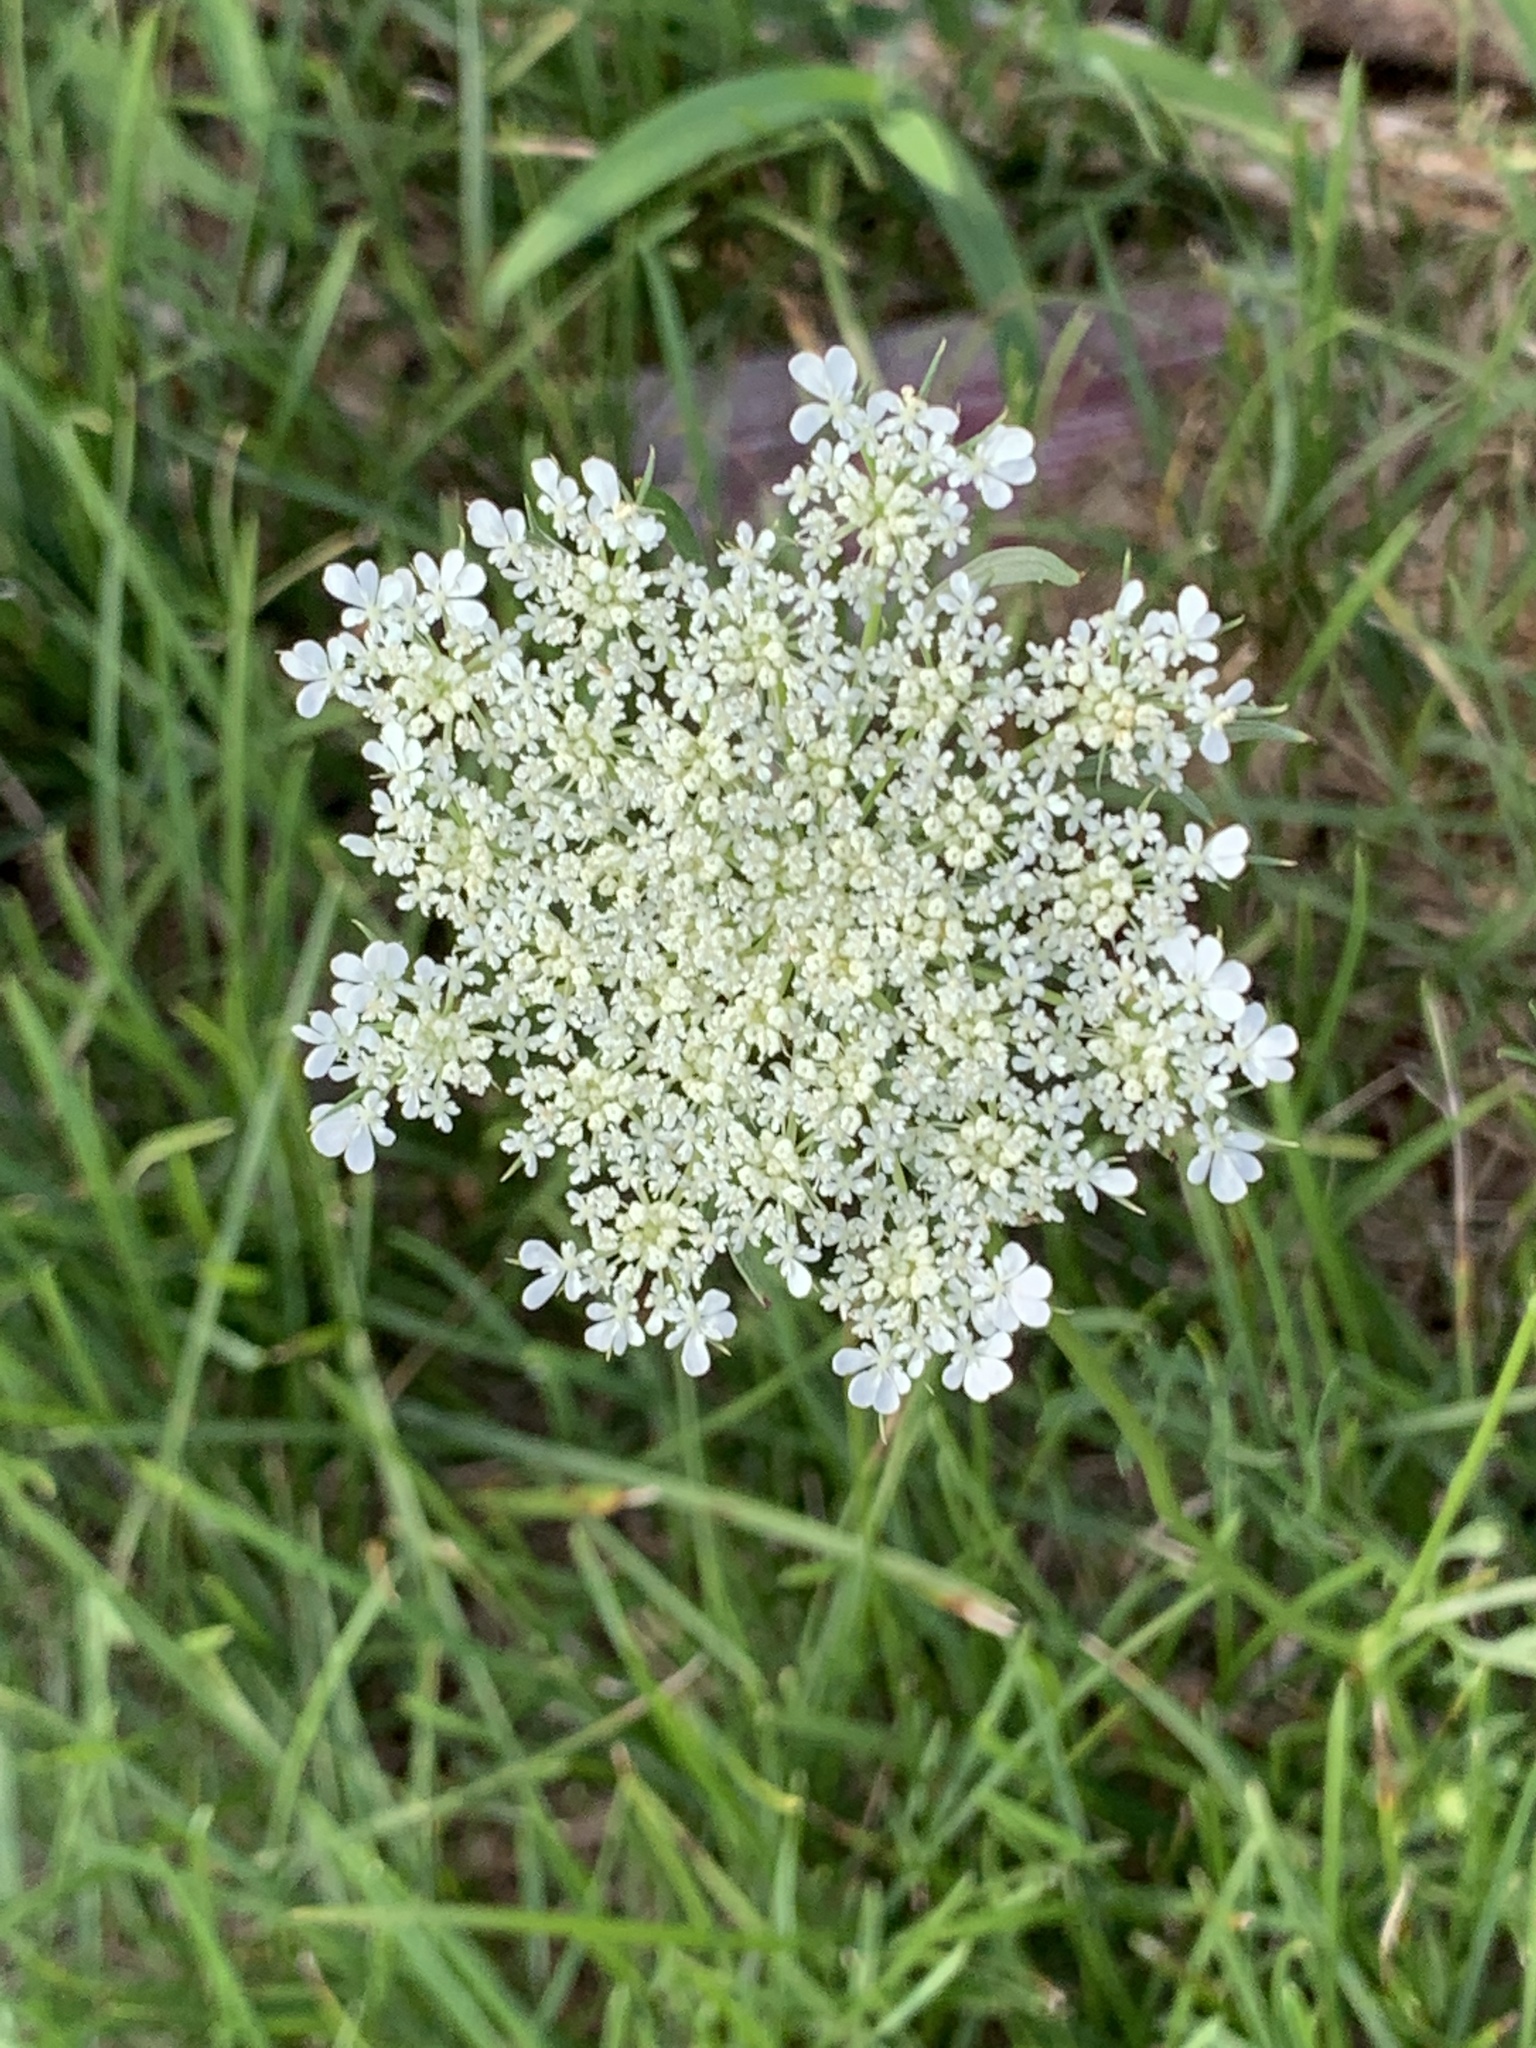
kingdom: Plantae
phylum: Tracheophyta
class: Magnoliopsida
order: Apiales
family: Apiaceae
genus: Daucus
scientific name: Daucus carota
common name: Wild carrot
